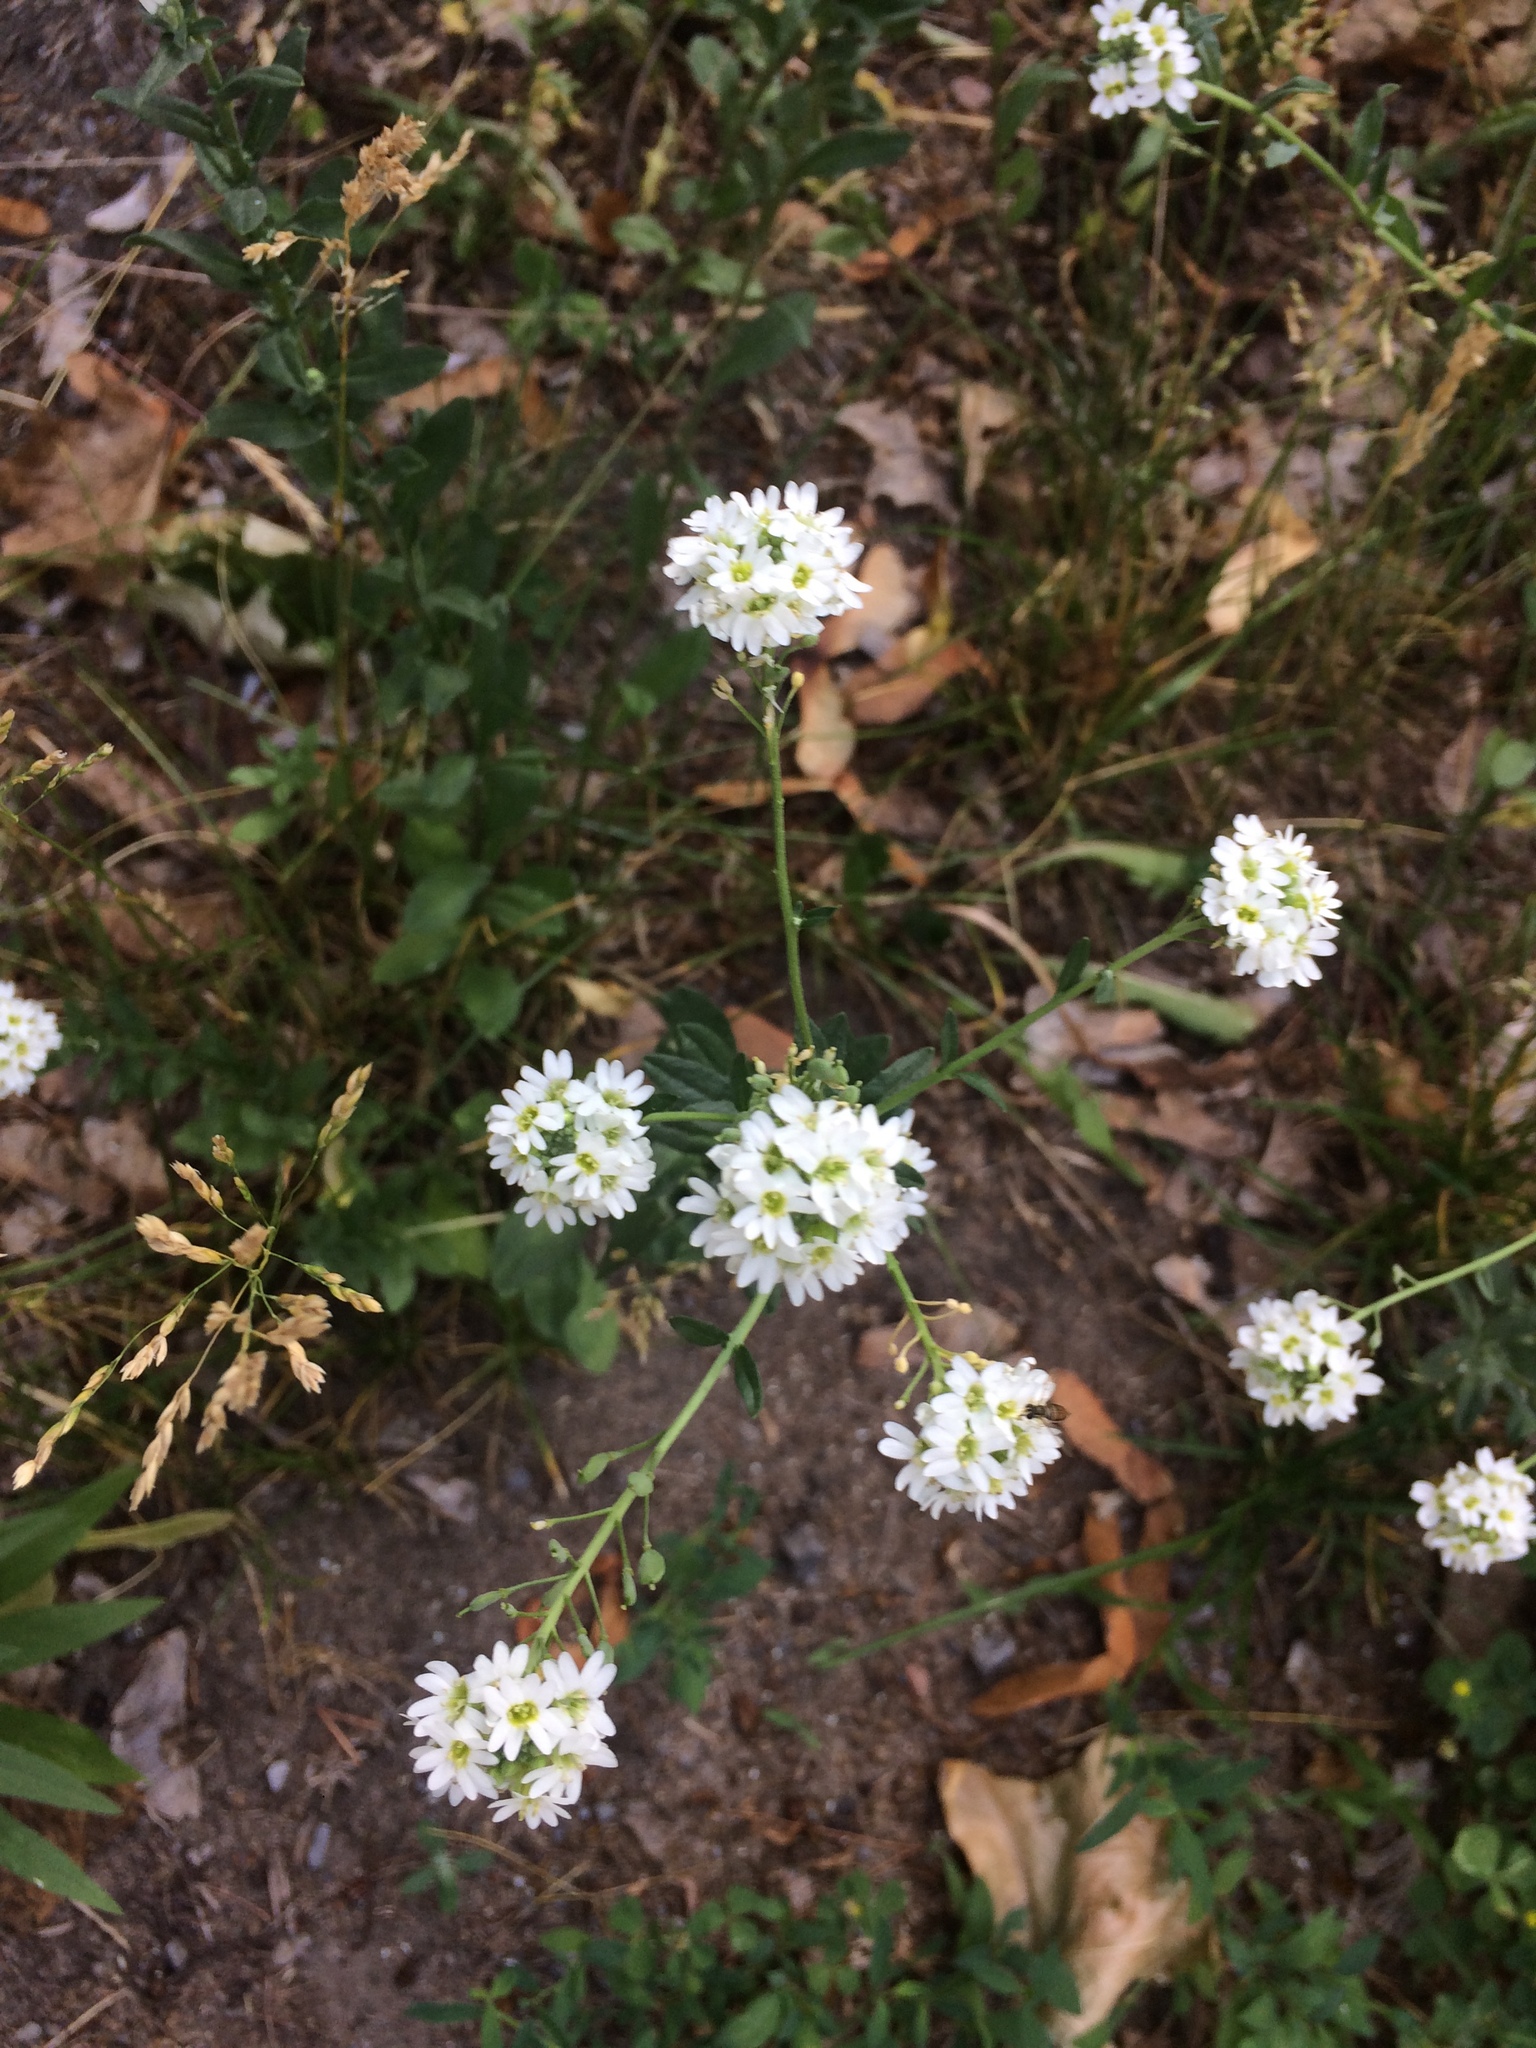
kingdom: Plantae
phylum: Tracheophyta
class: Magnoliopsida
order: Brassicales
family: Brassicaceae
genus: Berteroa
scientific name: Berteroa incana
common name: Hoary alison
